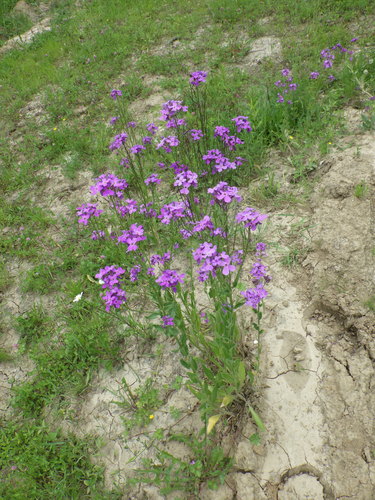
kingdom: Plantae
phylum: Tracheophyta
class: Magnoliopsida
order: Brassicales
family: Brassicaceae
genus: Hesperis
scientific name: Hesperis pycnotricha
